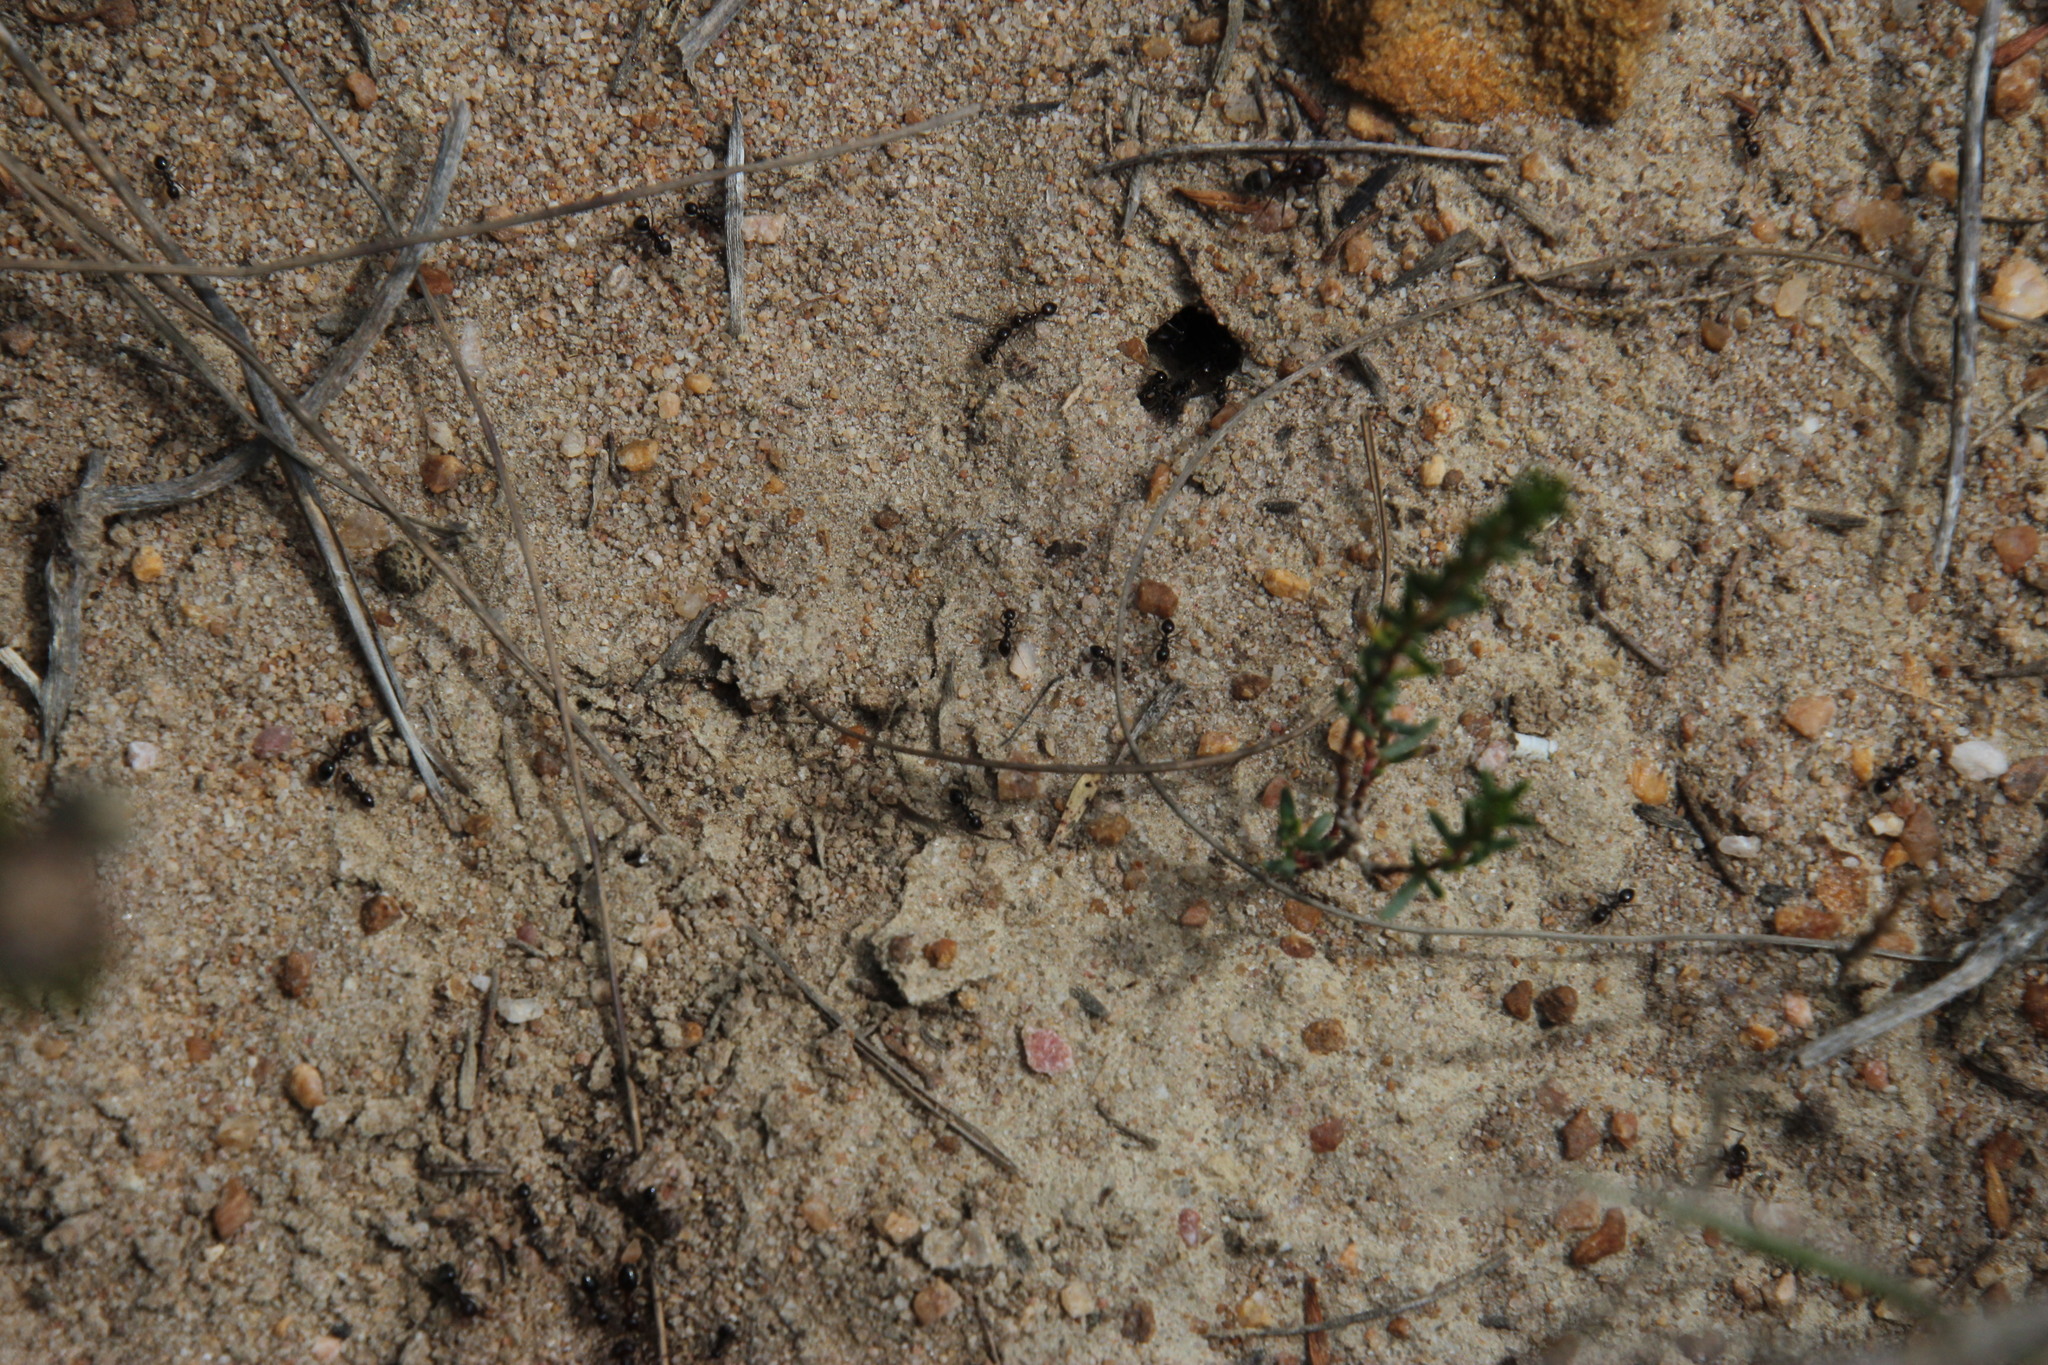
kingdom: Animalia
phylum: Arthropoda
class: Insecta
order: Hymenoptera
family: Formicidae
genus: Anoplolepis
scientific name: Anoplolepis steingroeveri
